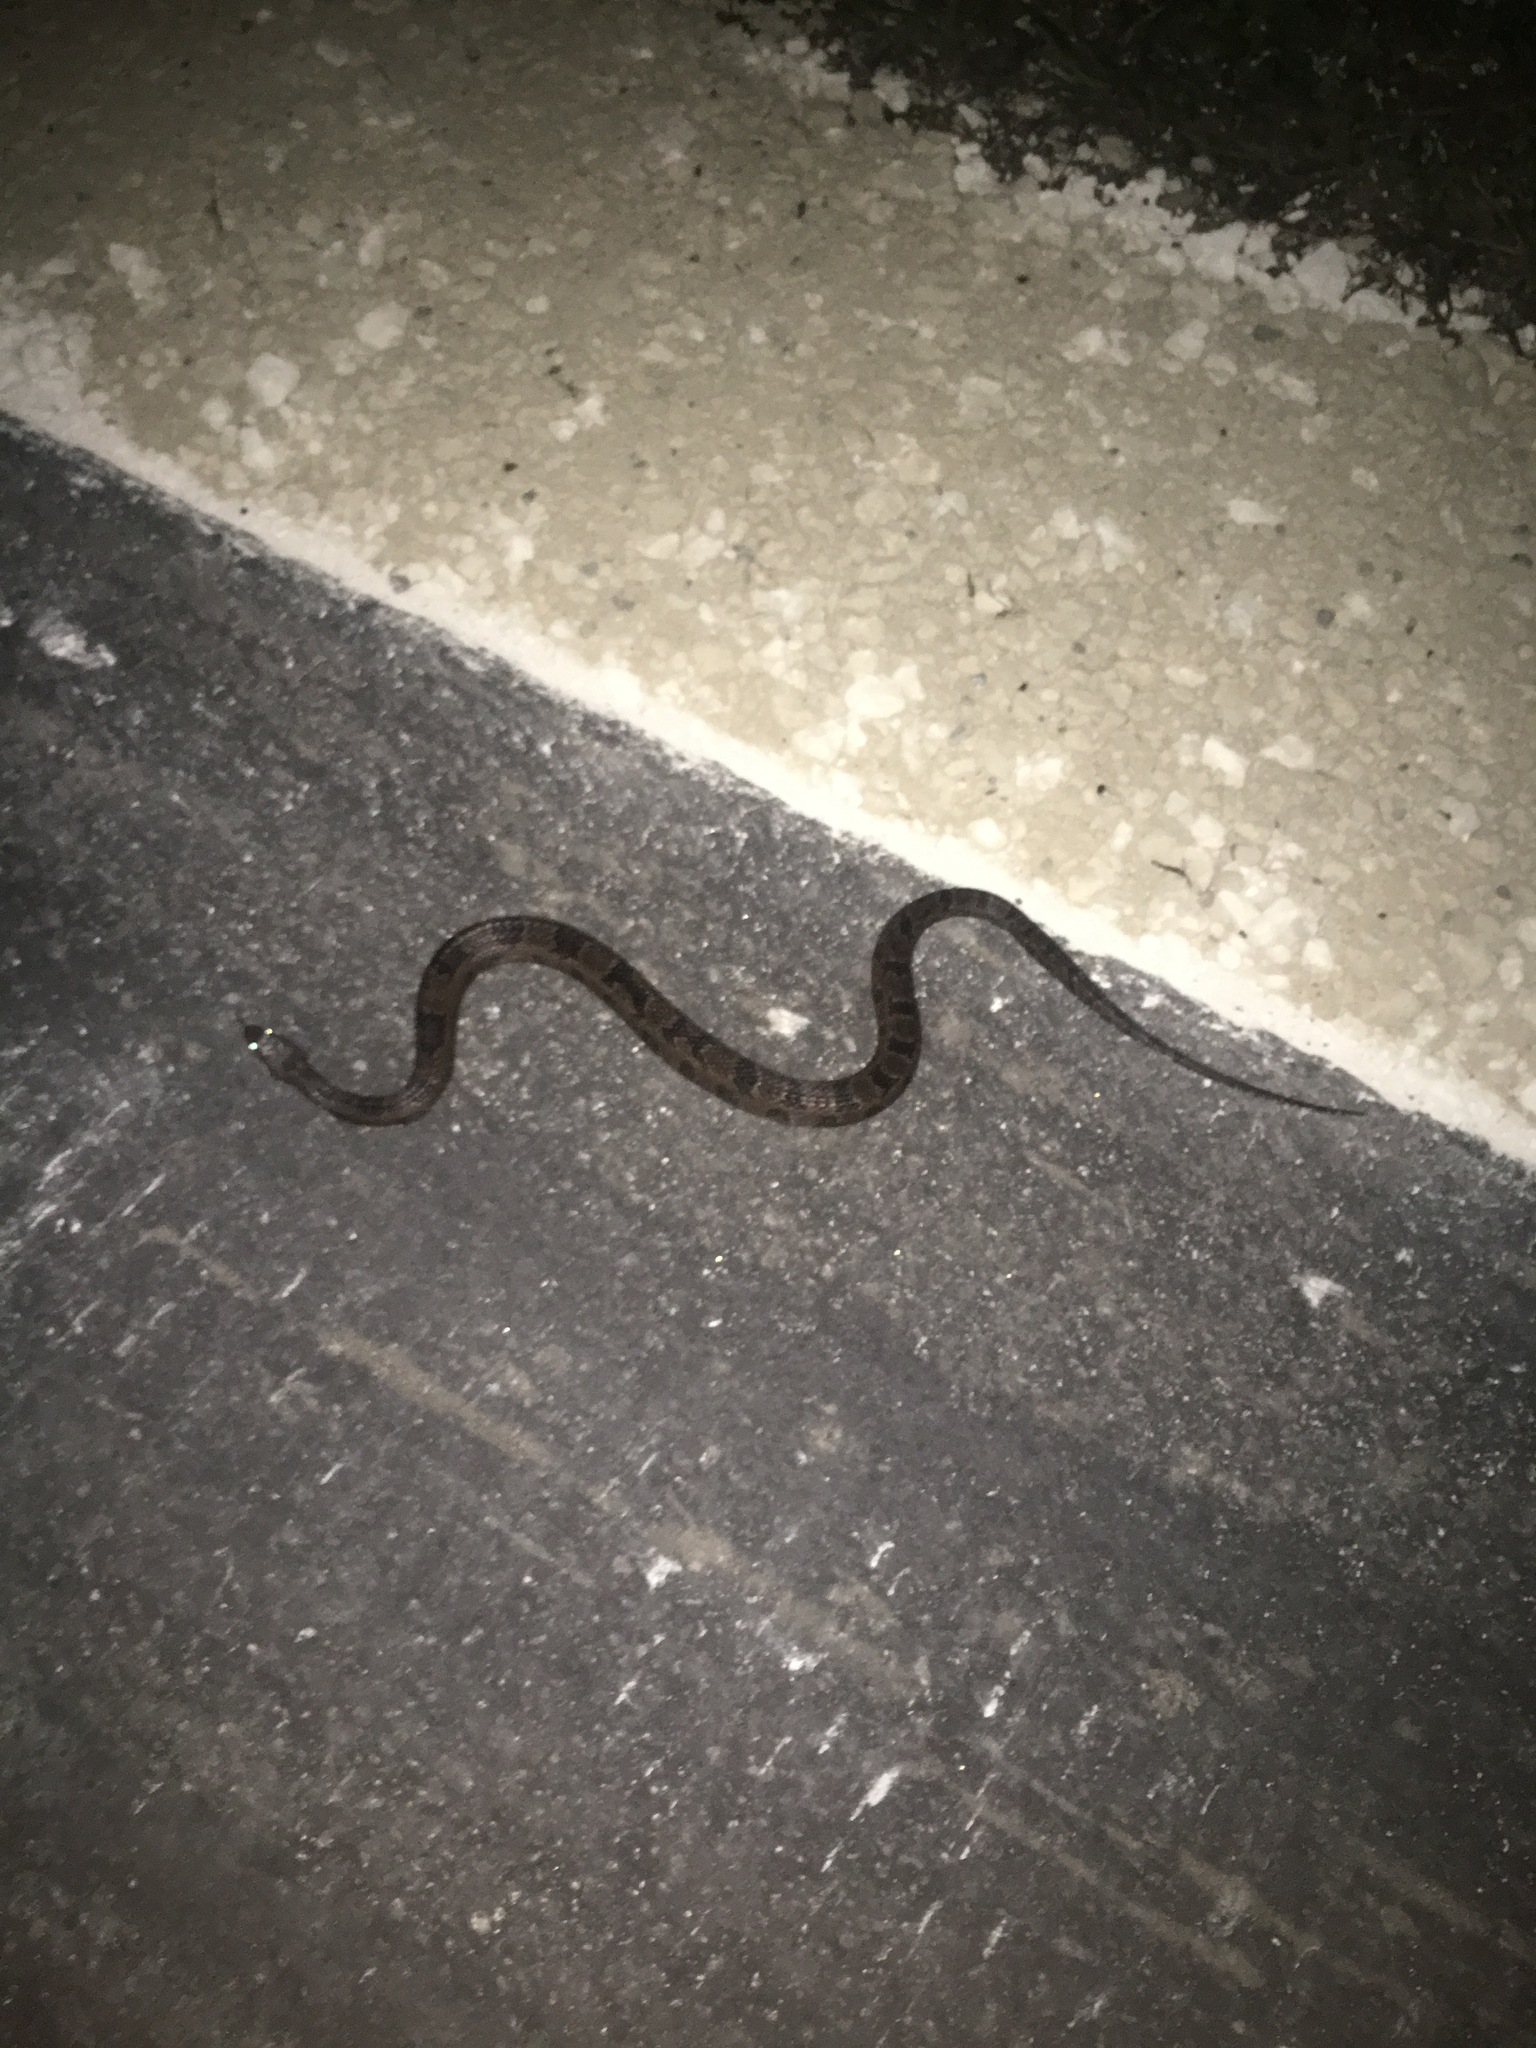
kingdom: Animalia
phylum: Chordata
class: Squamata
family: Colubridae
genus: Nerodia
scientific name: Nerodia taxispilota
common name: Brown water snake
